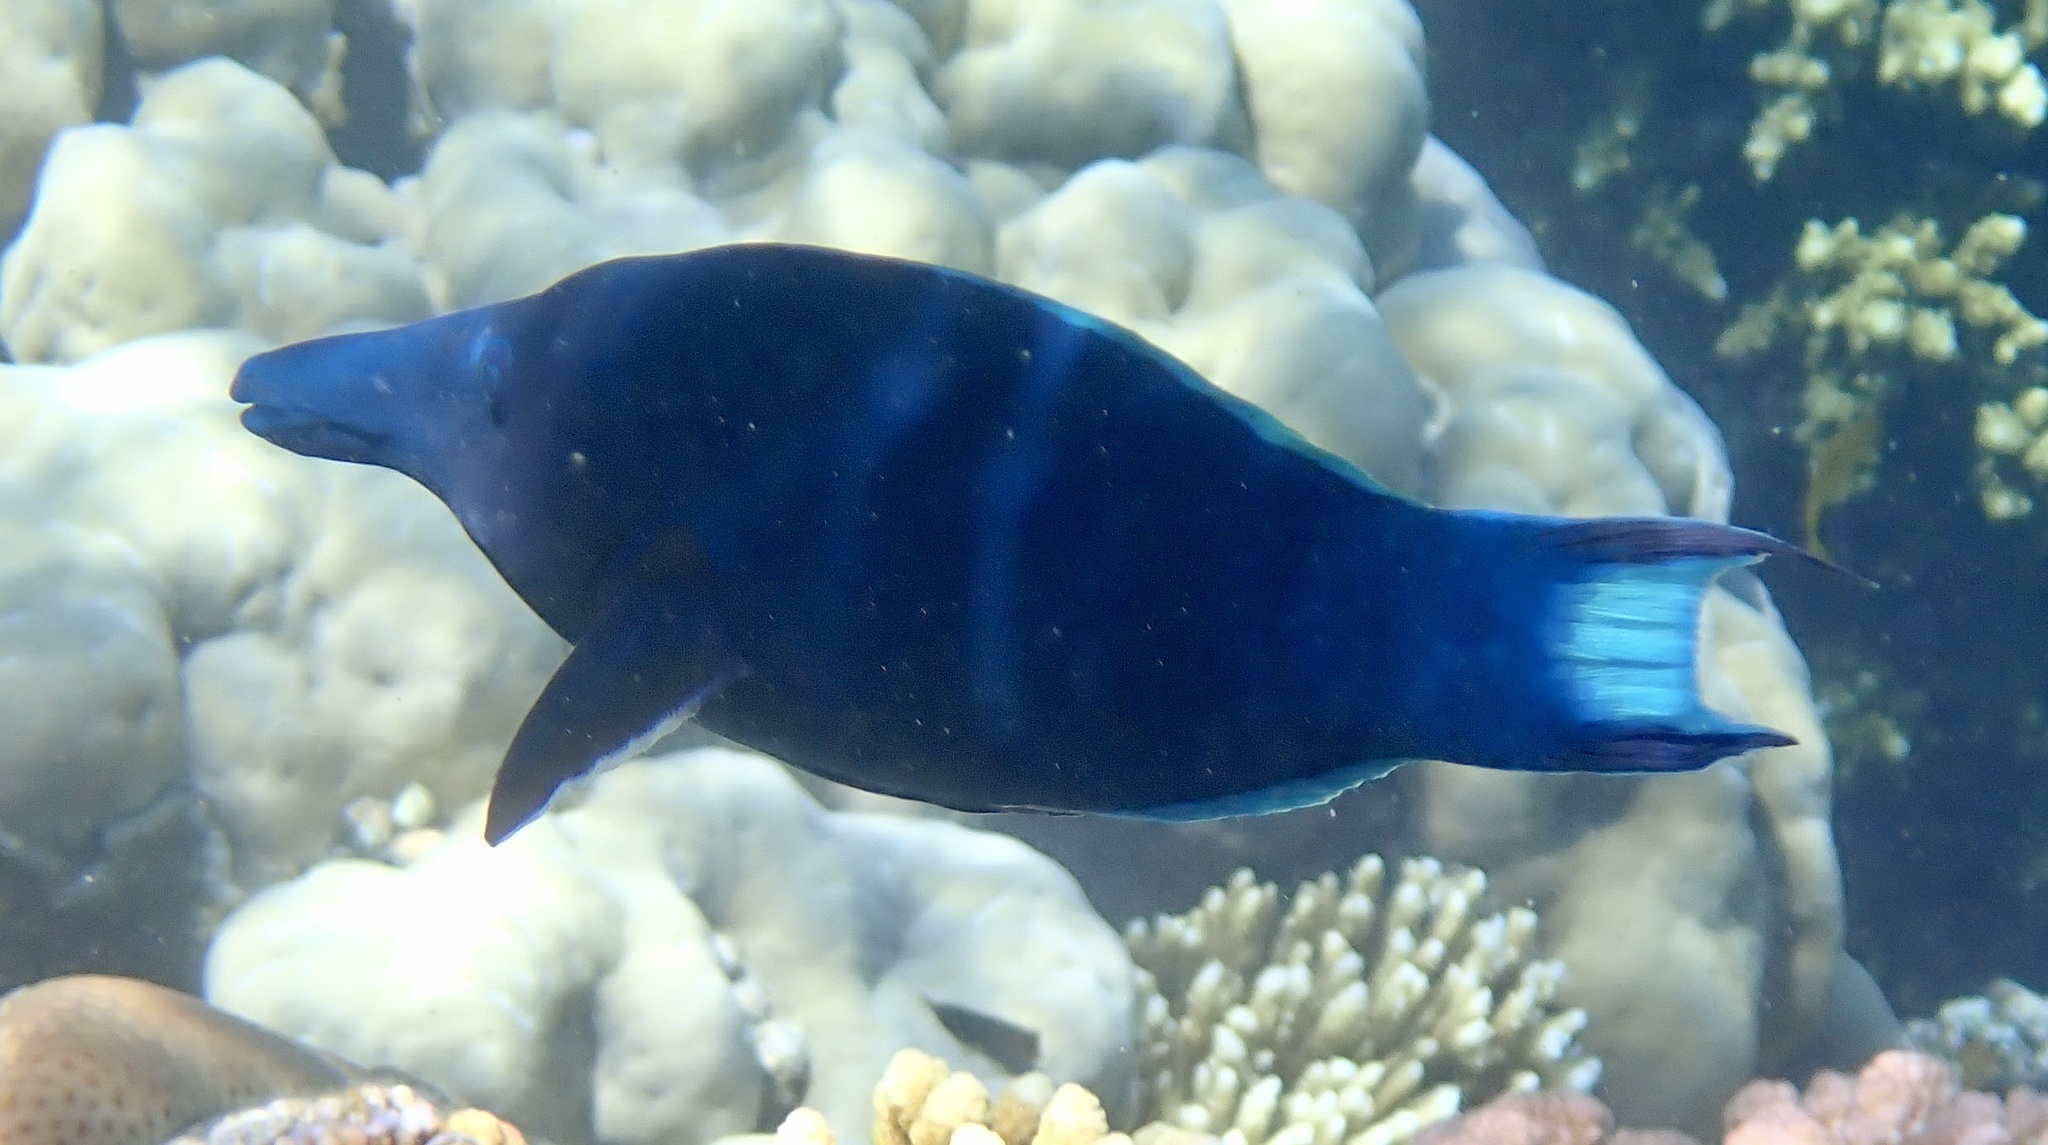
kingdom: Animalia
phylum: Chordata
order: Perciformes
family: Labridae
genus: Gomphosus
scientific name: Gomphosus klunzingeri
